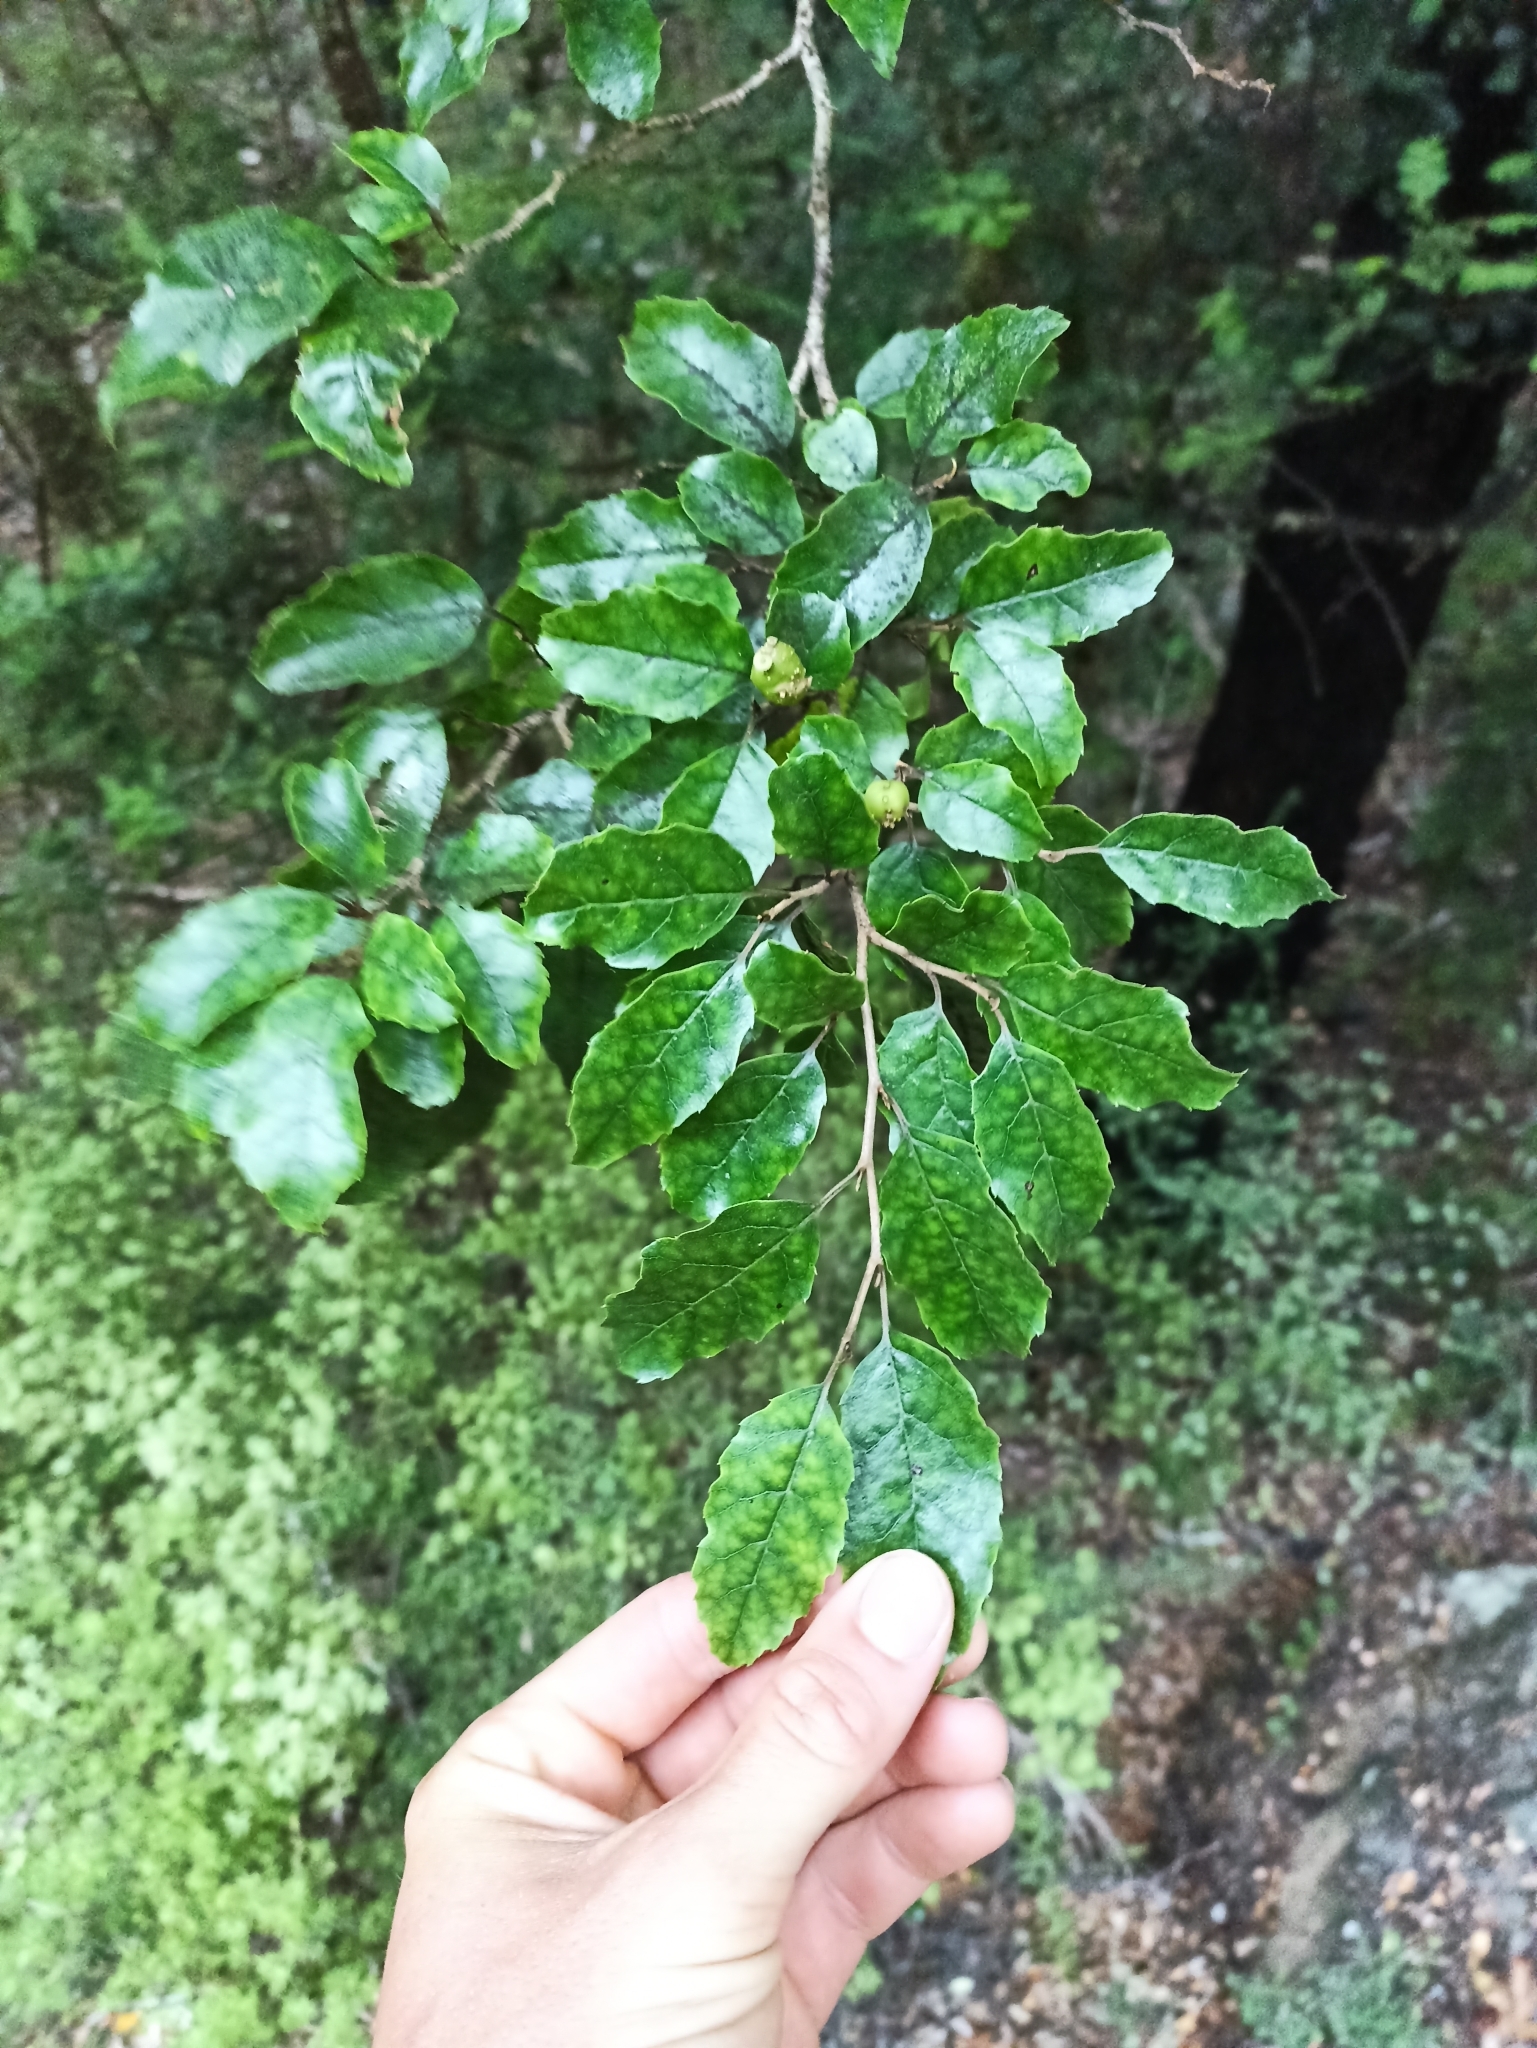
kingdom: Plantae
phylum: Tracheophyta
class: Magnoliopsida
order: Asterales
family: Rousseaceae
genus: Carpodetus
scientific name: Carpodetus serratus
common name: White mapau
